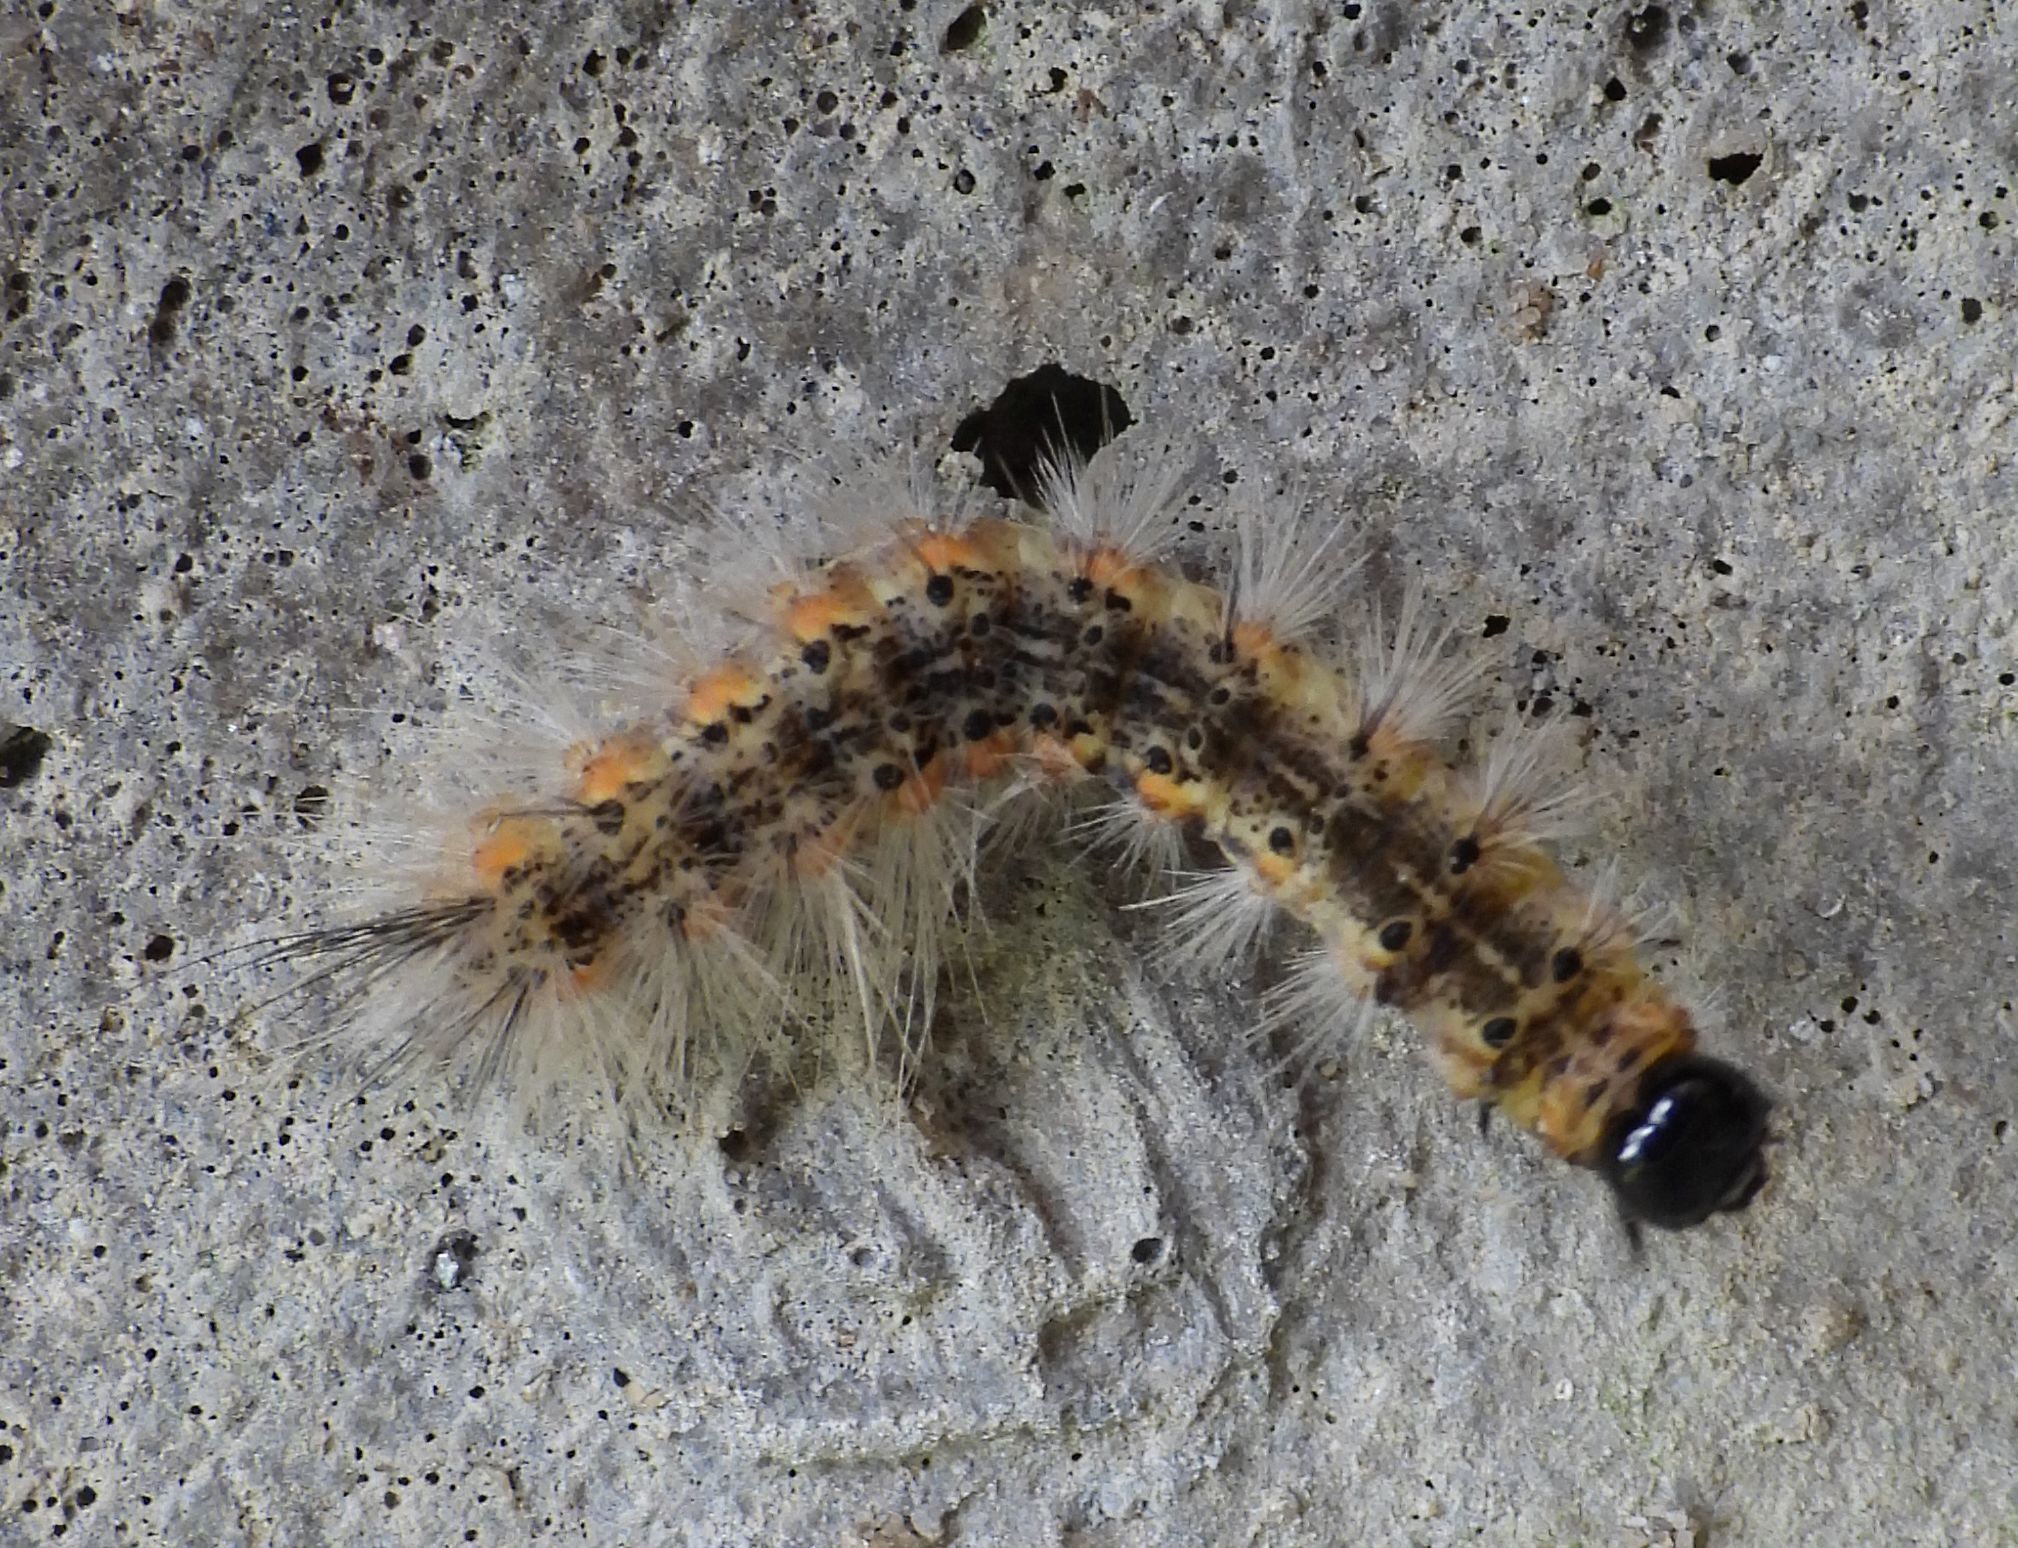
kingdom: Animalia
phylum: Arthropoda
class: Insecta
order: Lepidoptera
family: Erebidae
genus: Hyphantria
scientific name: Hyphantria cunea
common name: American white moth
